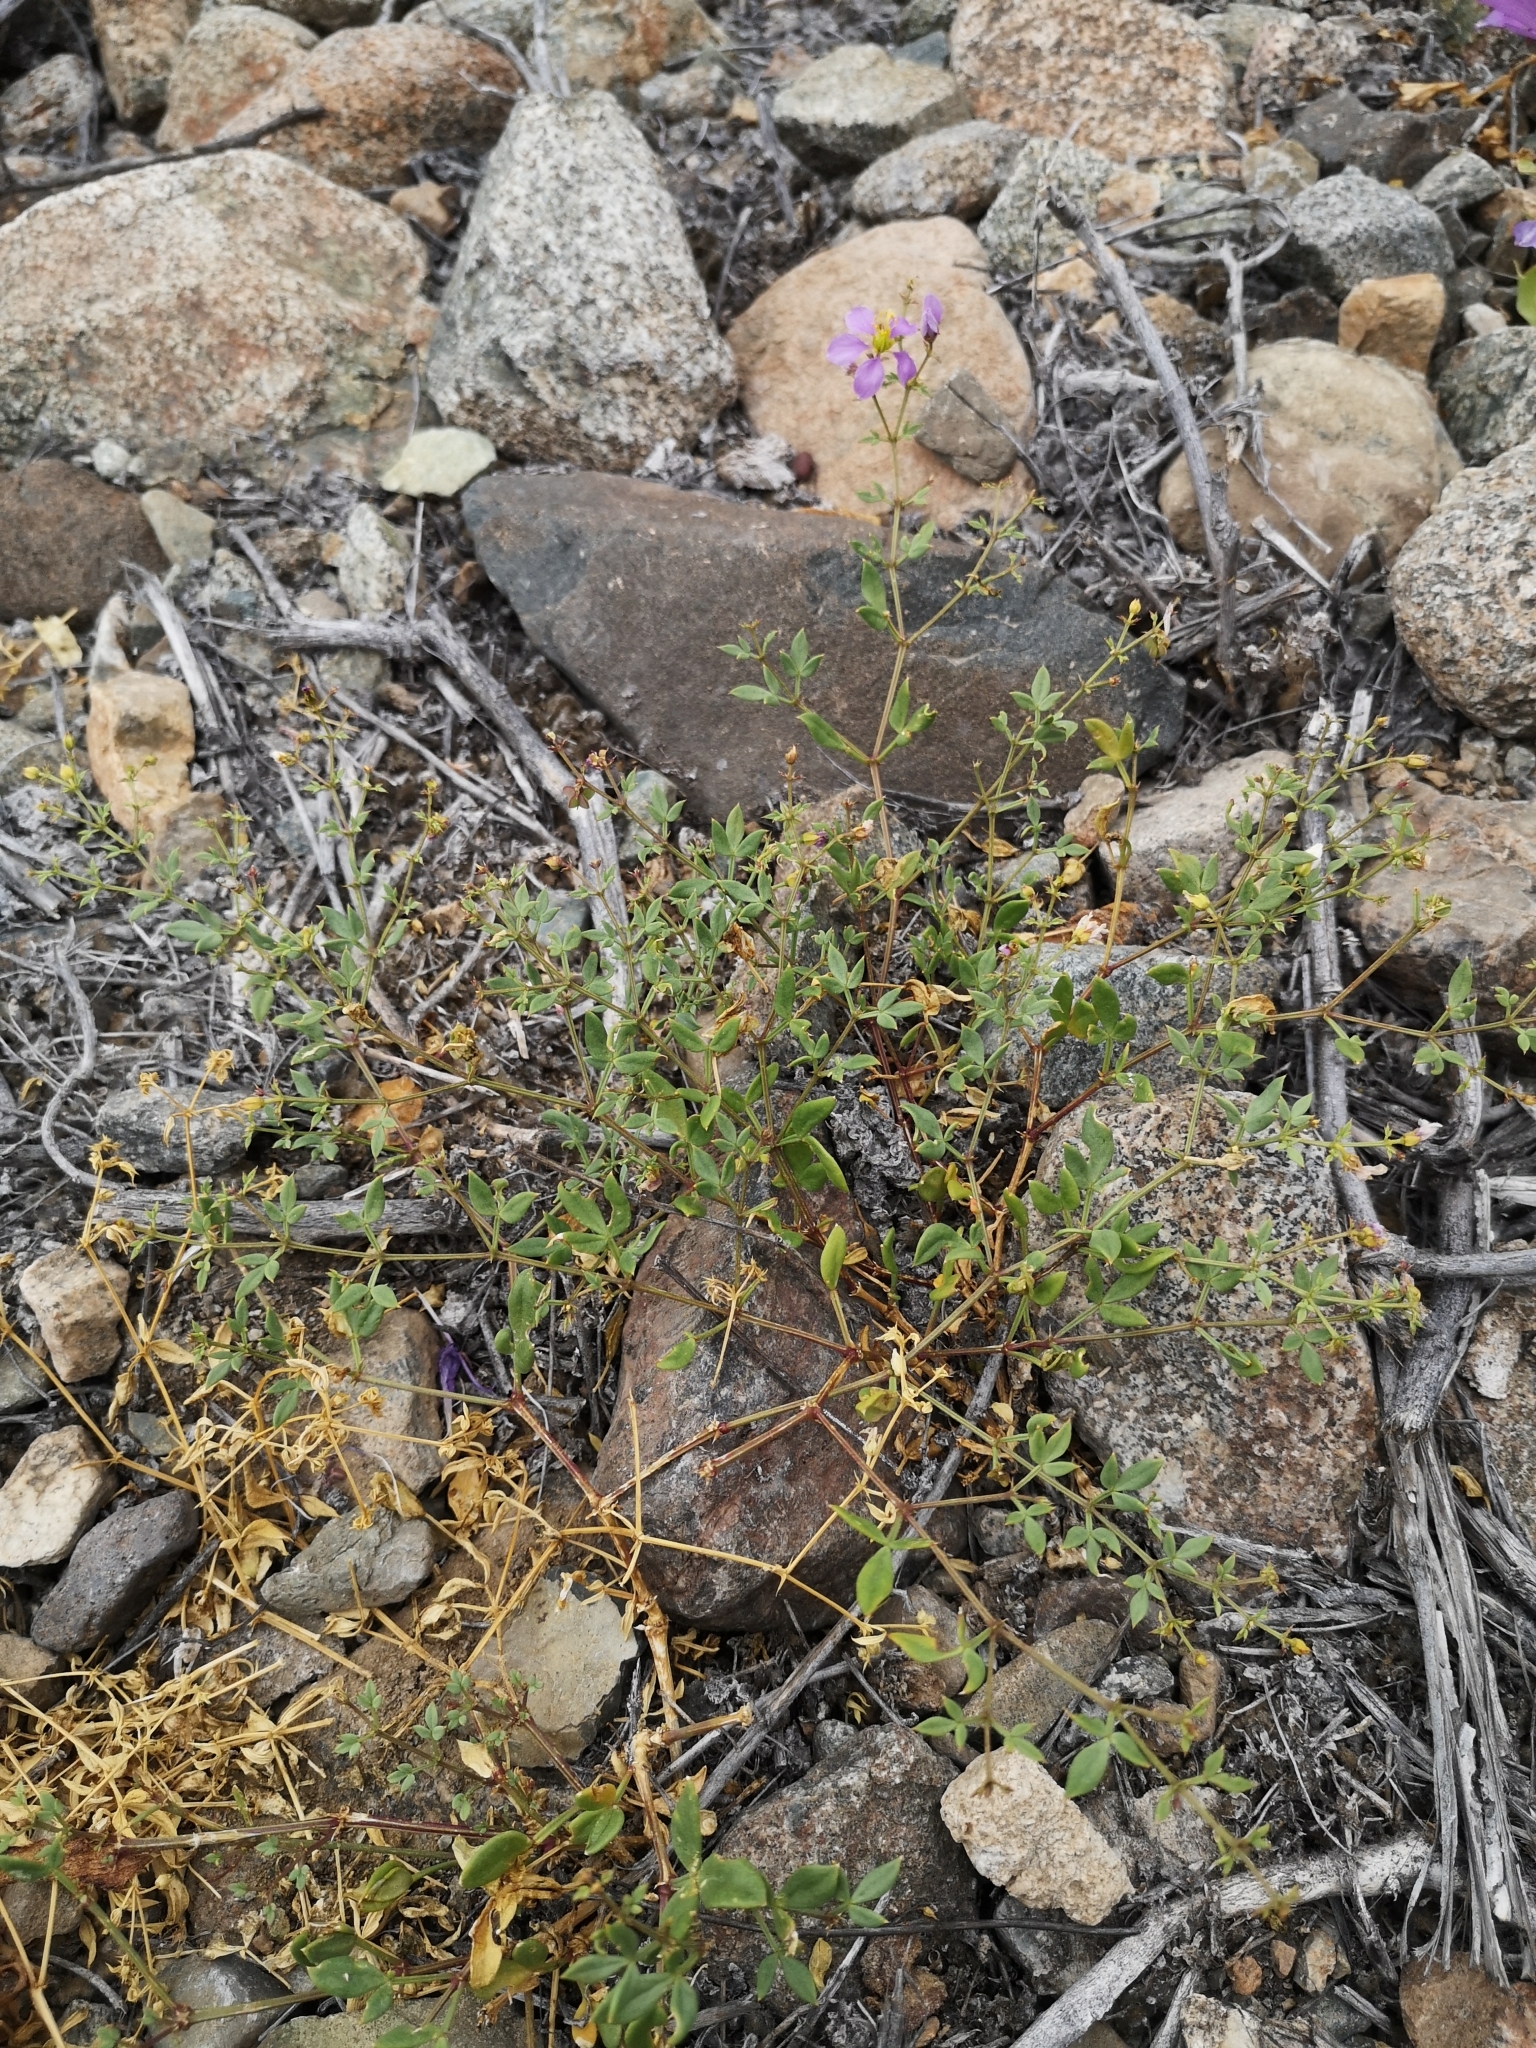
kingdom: Plantae
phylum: Tracheophyta
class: Magnoliopsida
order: Zygophyllales
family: Zygophyllaceae
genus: Fagonia
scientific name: Fagonia chilensis
